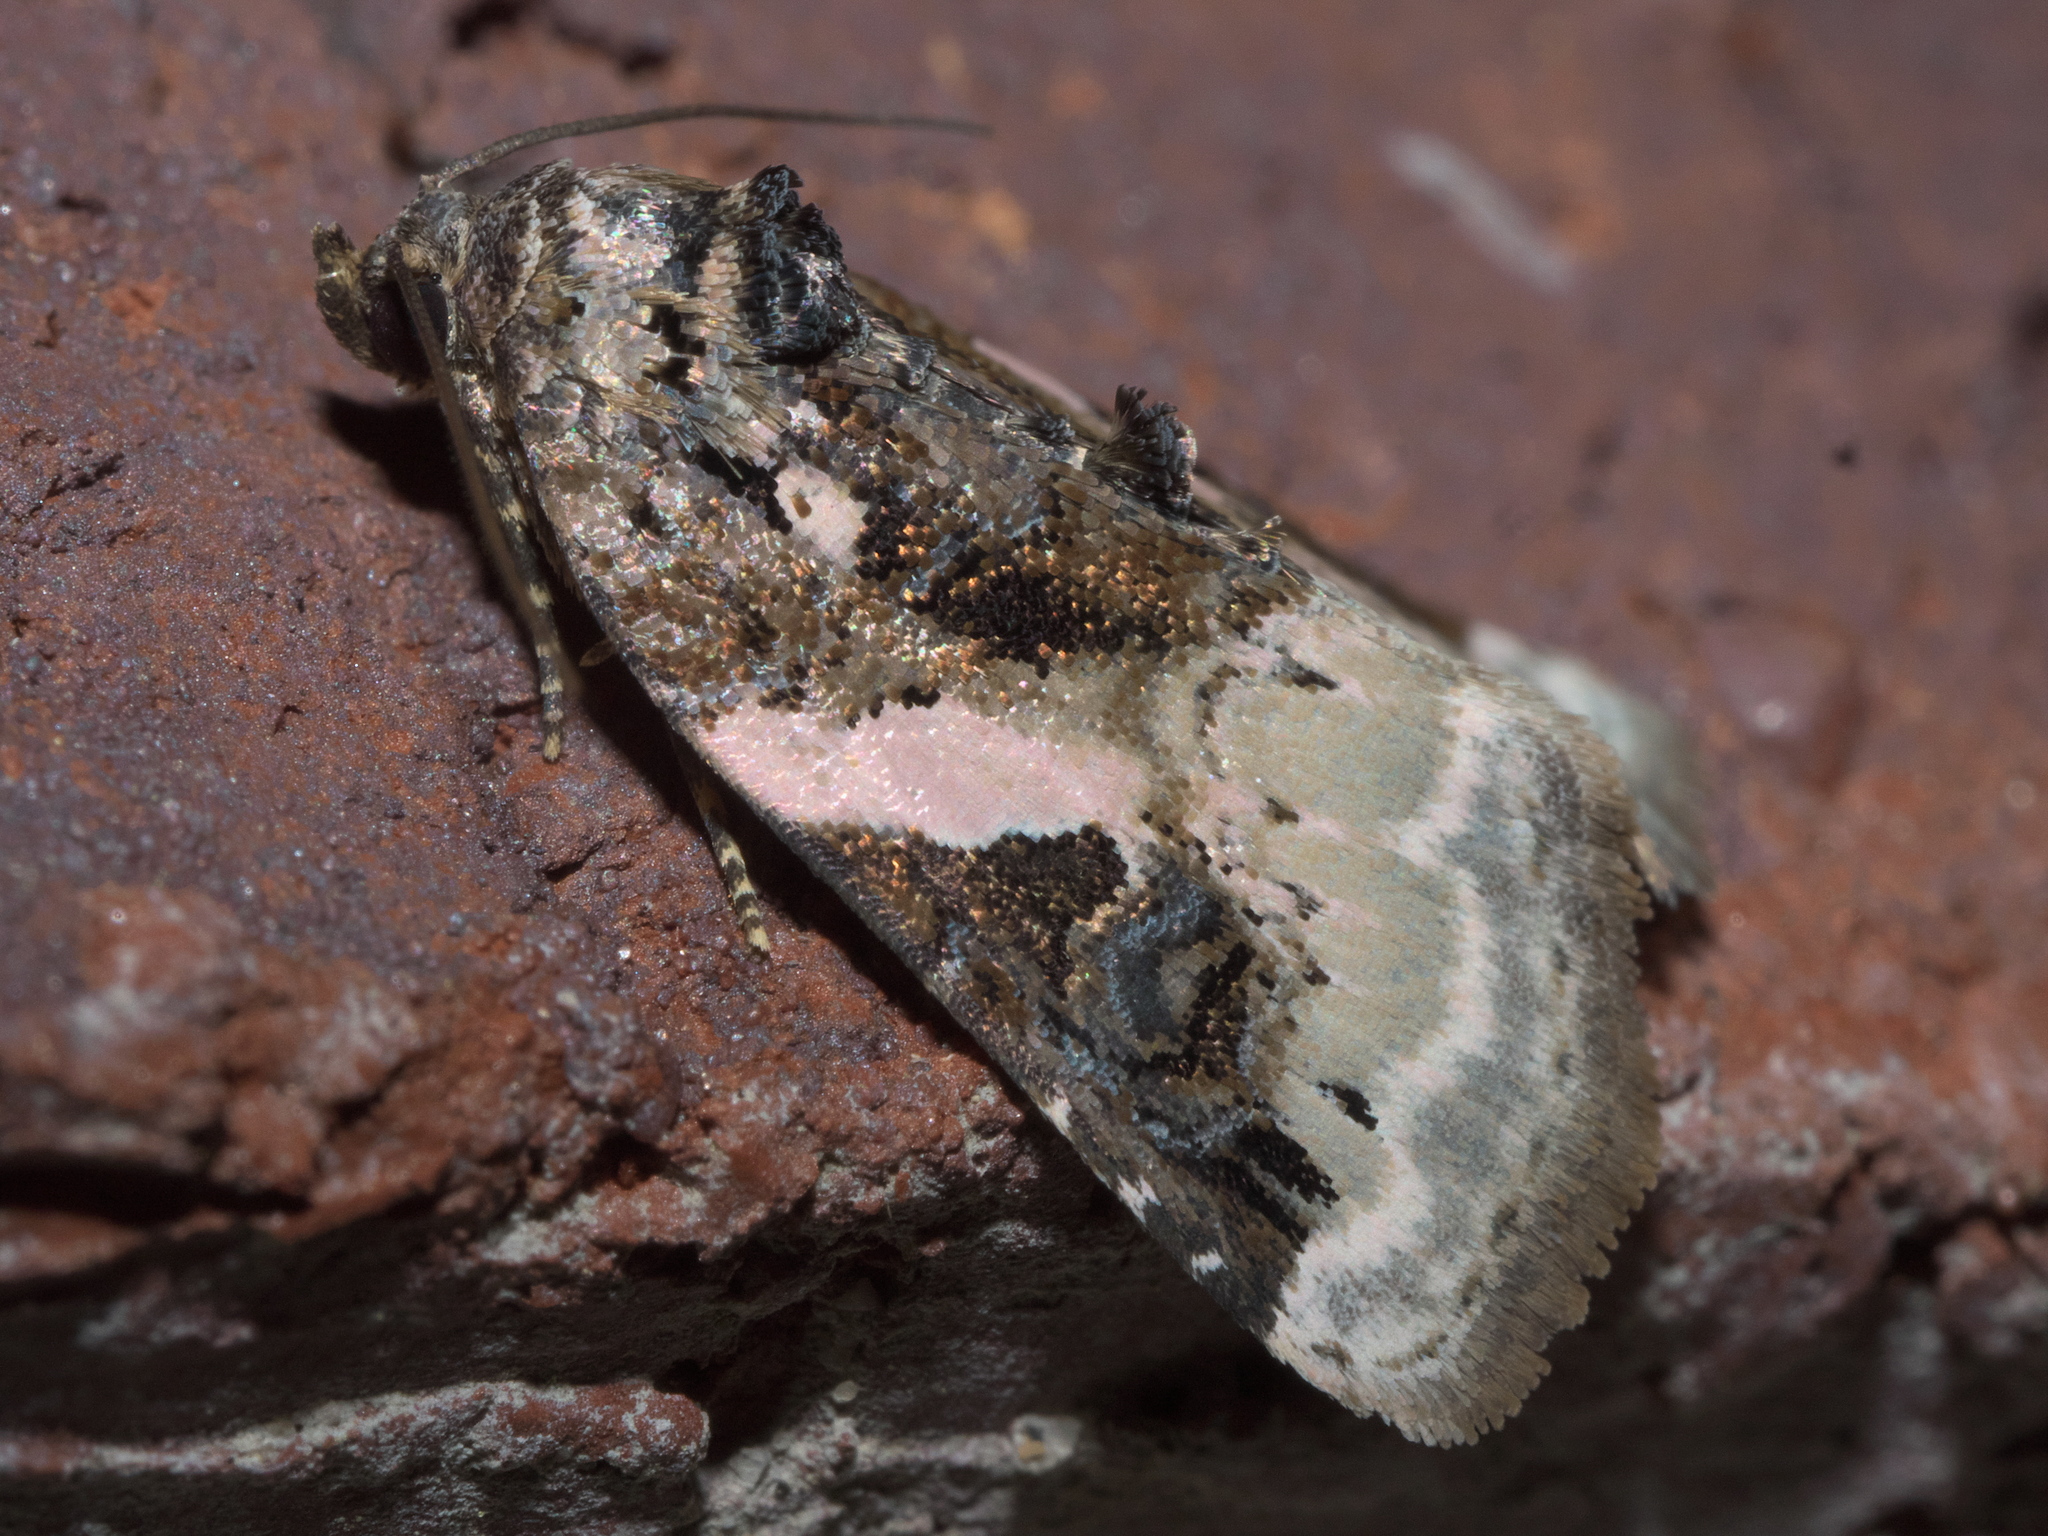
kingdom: Animalia
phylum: Arthropoda
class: Insecta
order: Lepidoptera
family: Noctuidae
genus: Pseudeustrotia
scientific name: Pseudeustrotia carneola
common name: Pink-barred lithacodia moth
